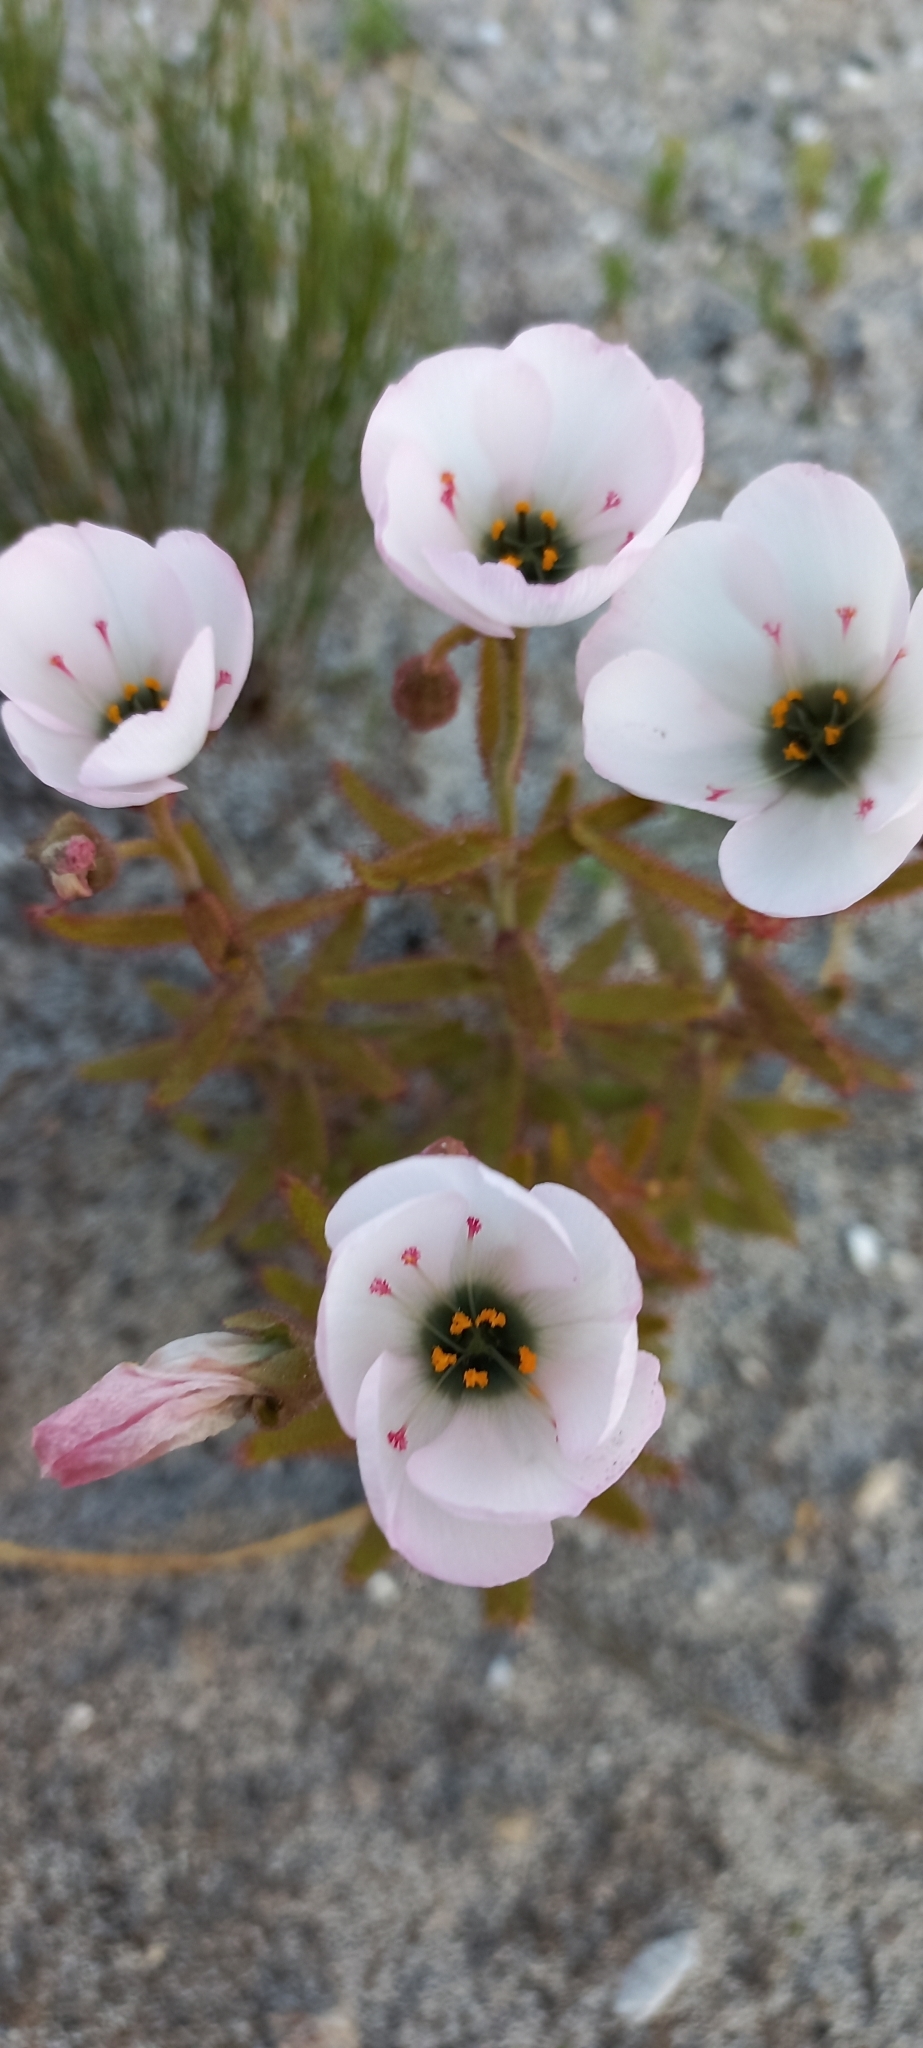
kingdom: Plantae
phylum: Tracheophyta
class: Magnoliopsida
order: Caryophyllales
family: Droseraceae
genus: Drosera
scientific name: Drosera cistiflora
